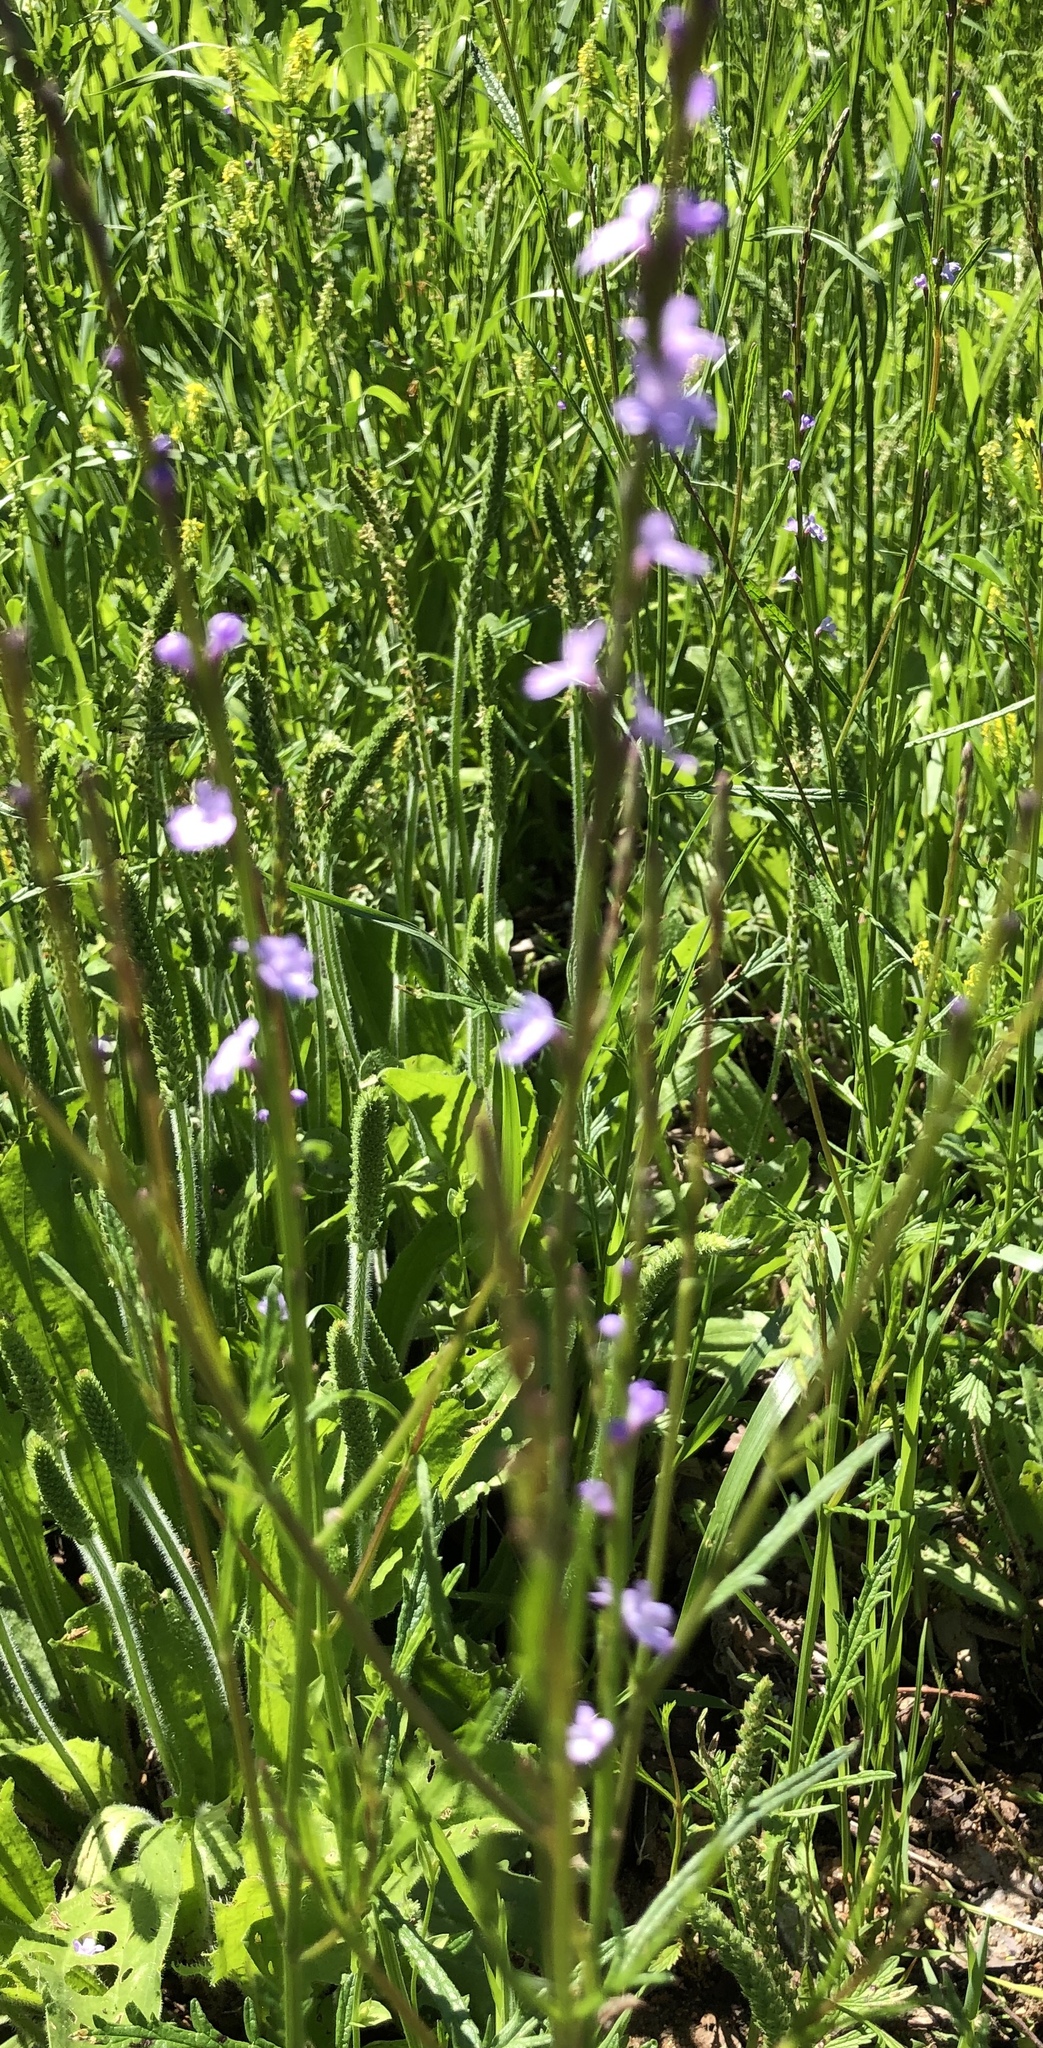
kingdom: Plantae
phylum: Tracheophyta
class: Magnoliopsida
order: Lamiales
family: Verbenaceae
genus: Verbena
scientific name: Verbena halei
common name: Texas vervain
